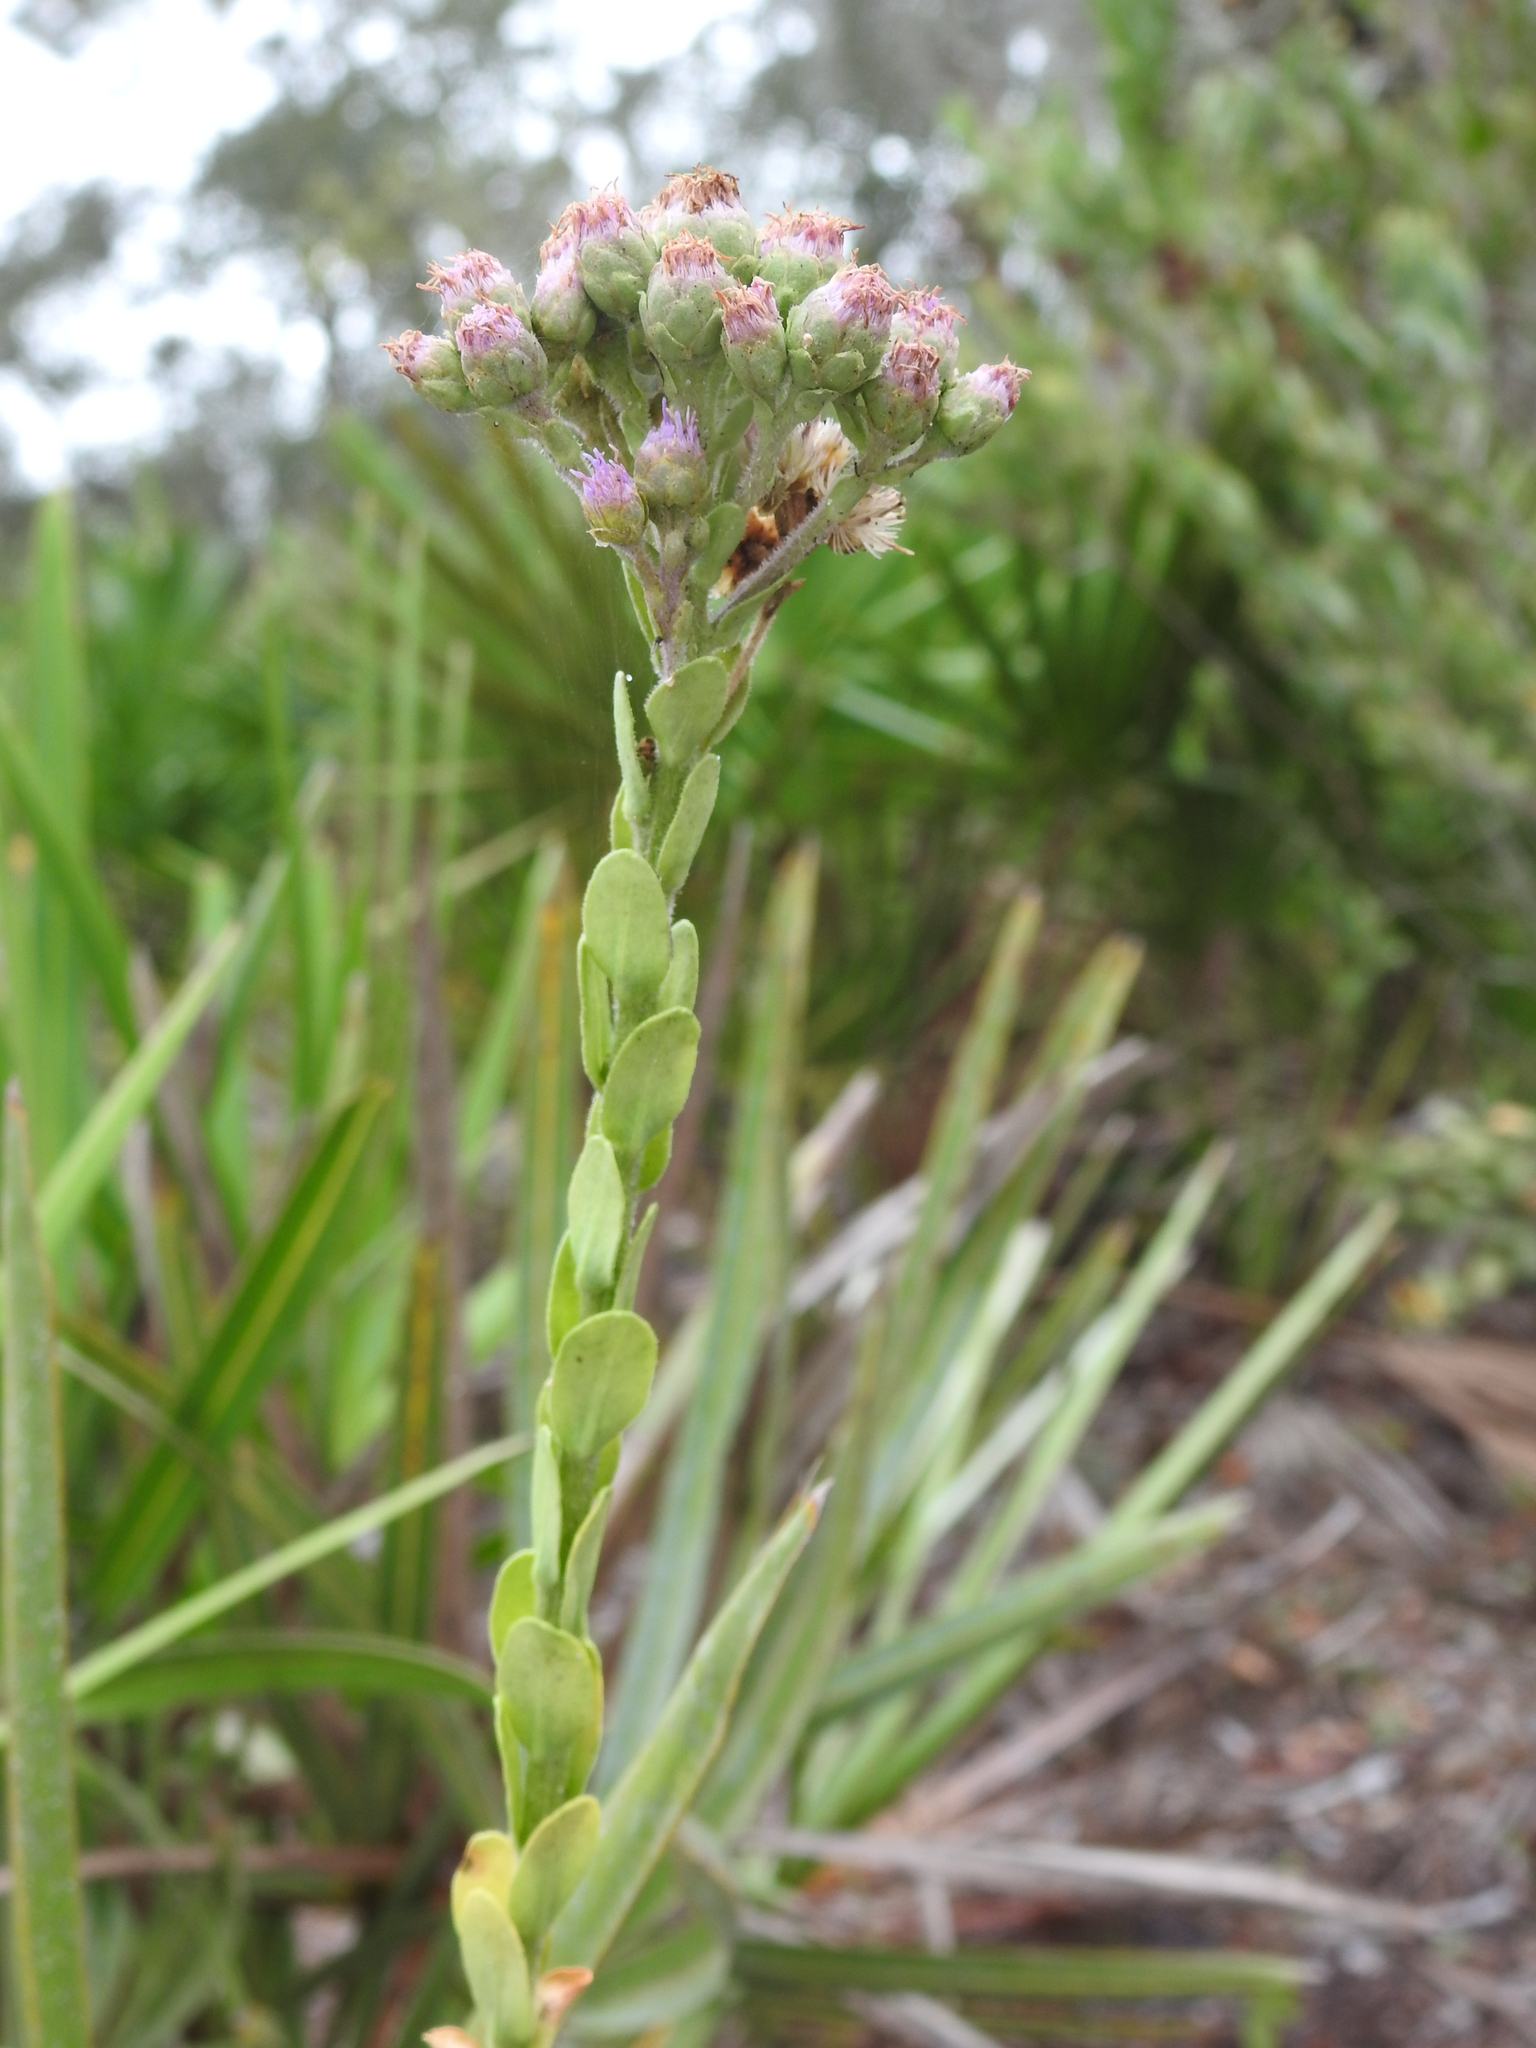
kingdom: Plantae
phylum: Tracheophyta
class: Magnoliopsida
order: Asterales
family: Asteraceae
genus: Carphephorus
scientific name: Carphephorus corymbosus
